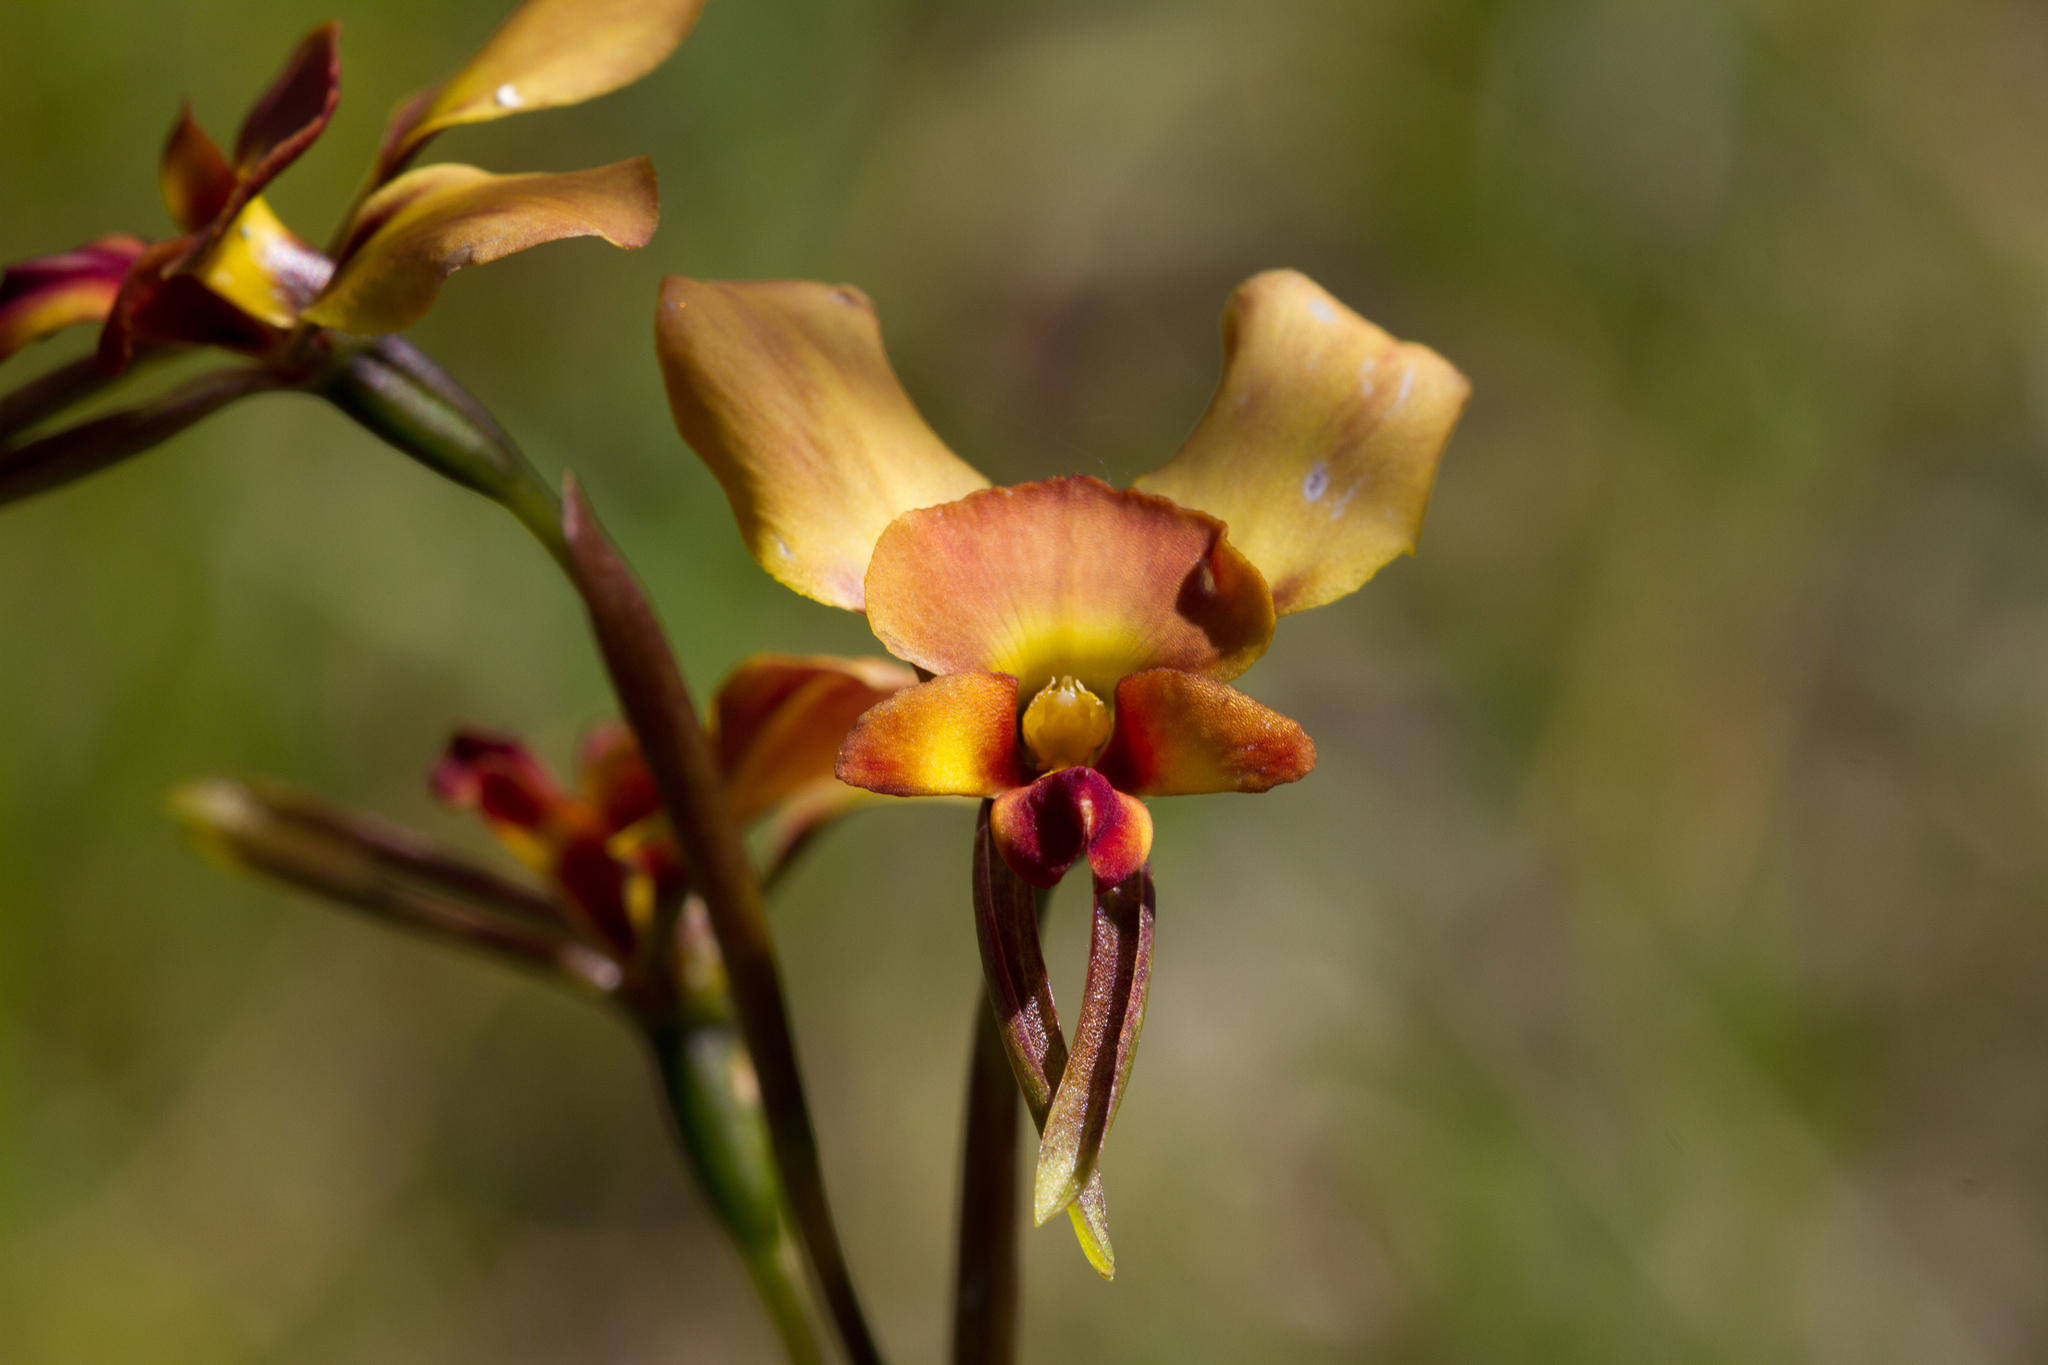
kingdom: Plantae
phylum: Tracheophyta
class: Liliopsida
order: Asparagales
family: Orchidaceae
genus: Diuris
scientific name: Diuris orientis
